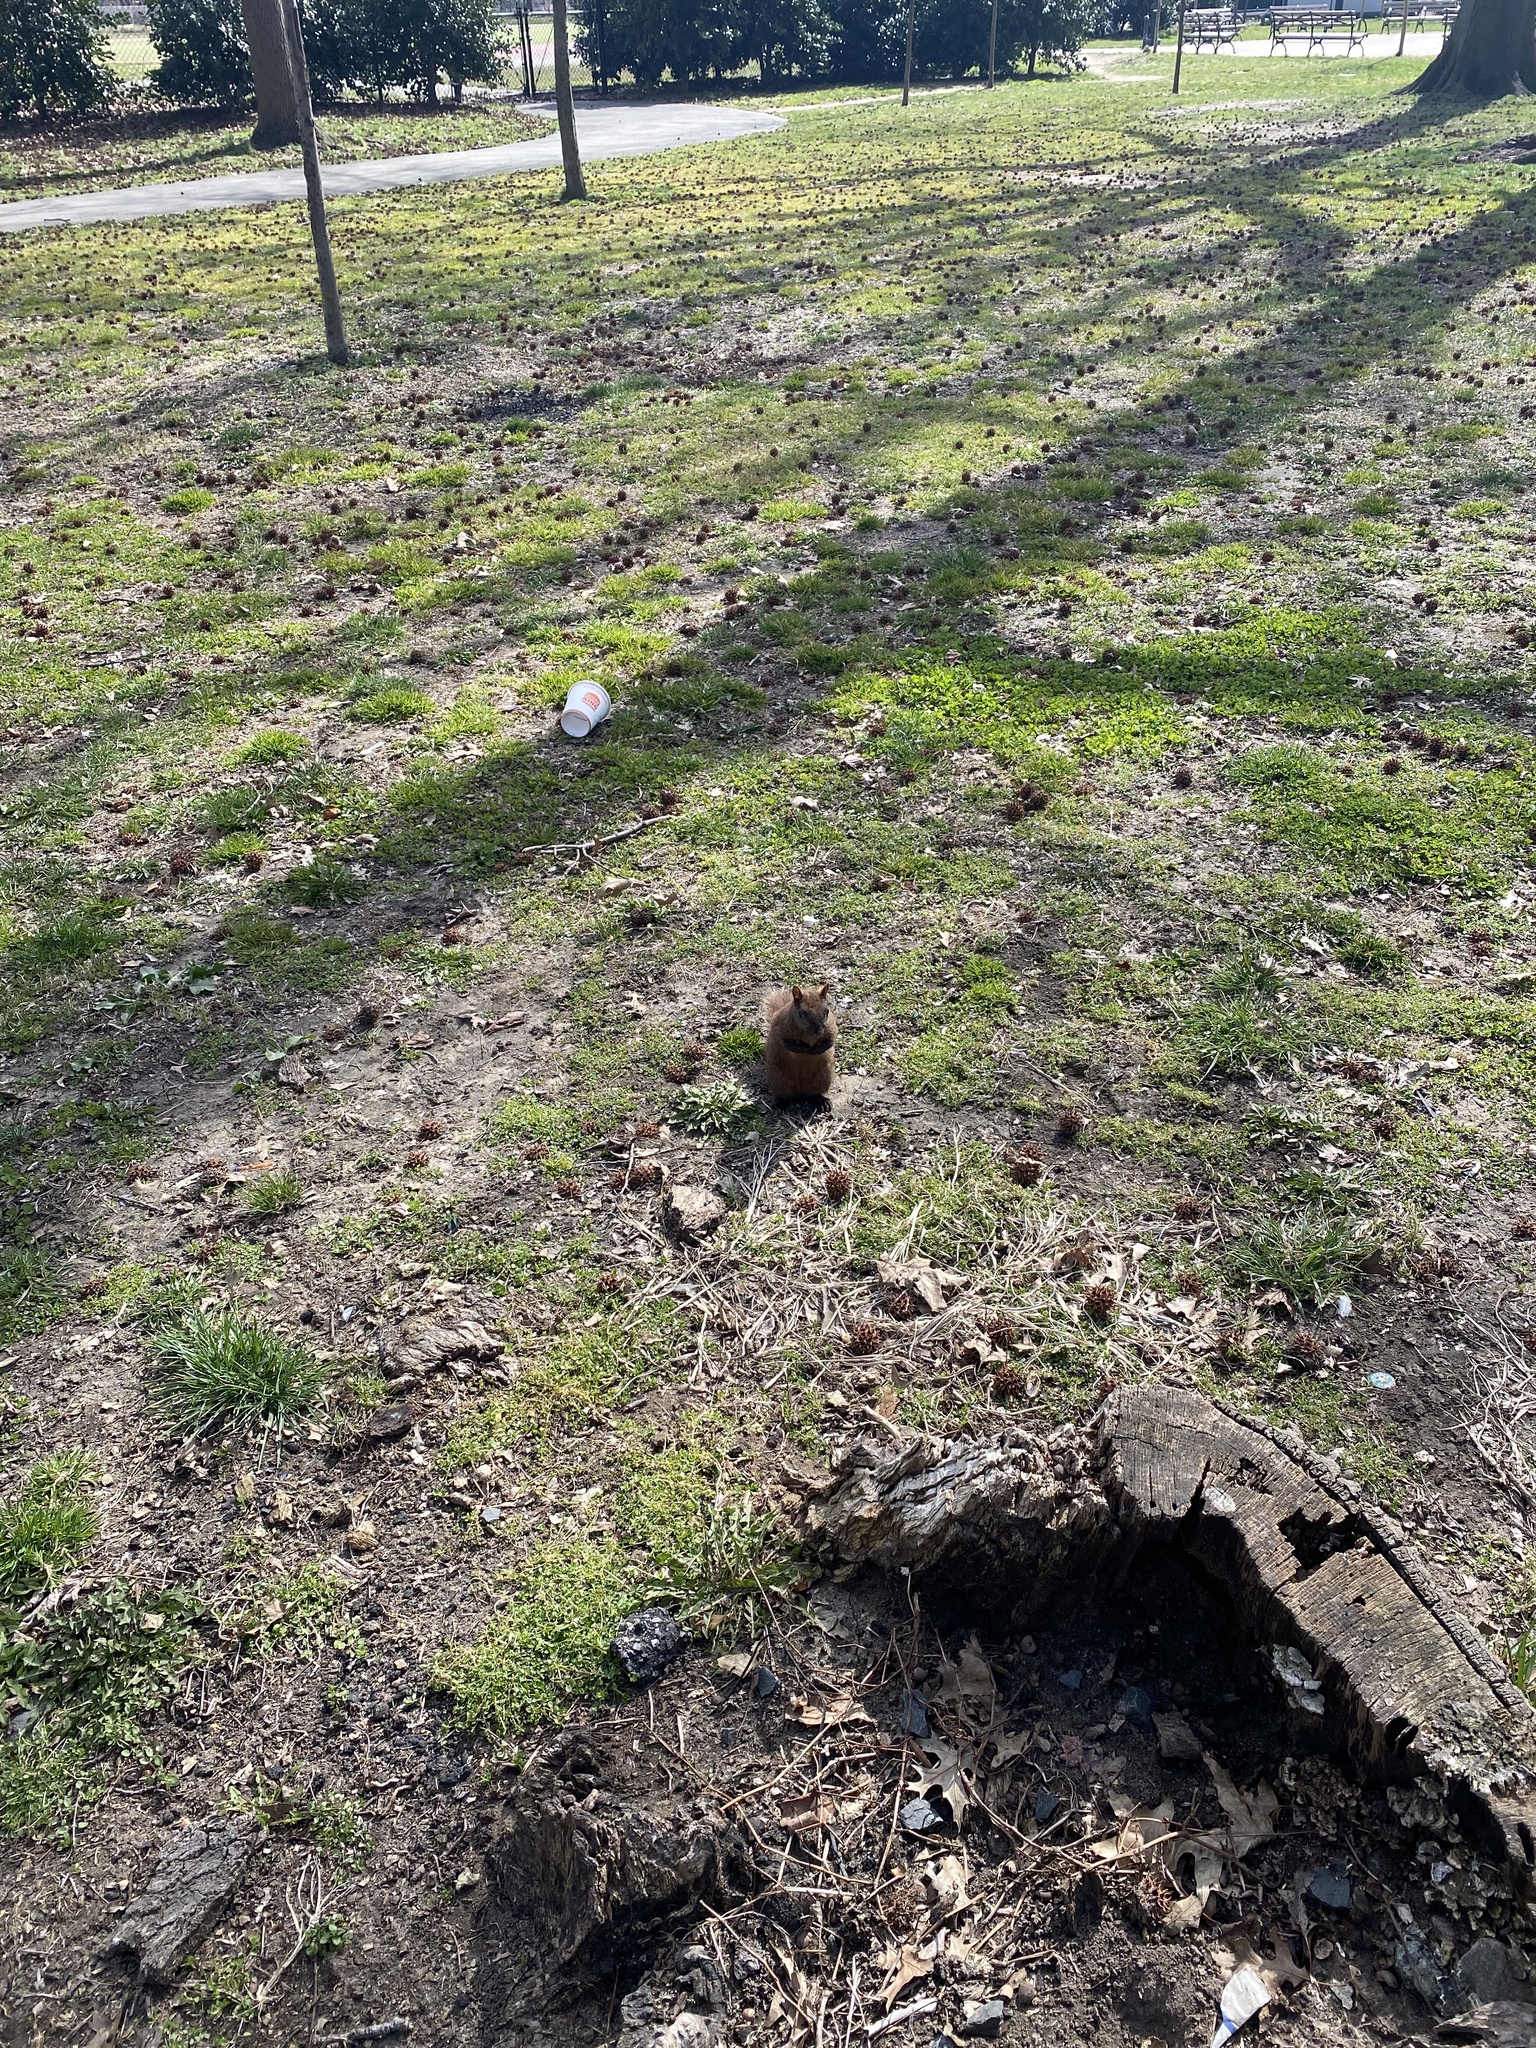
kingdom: Animalia
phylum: Chordata
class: Mammalia
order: Rodentia
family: Sciuridae
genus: Sciurus
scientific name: Sciurus carolinensis
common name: Eastern gray squirrel
